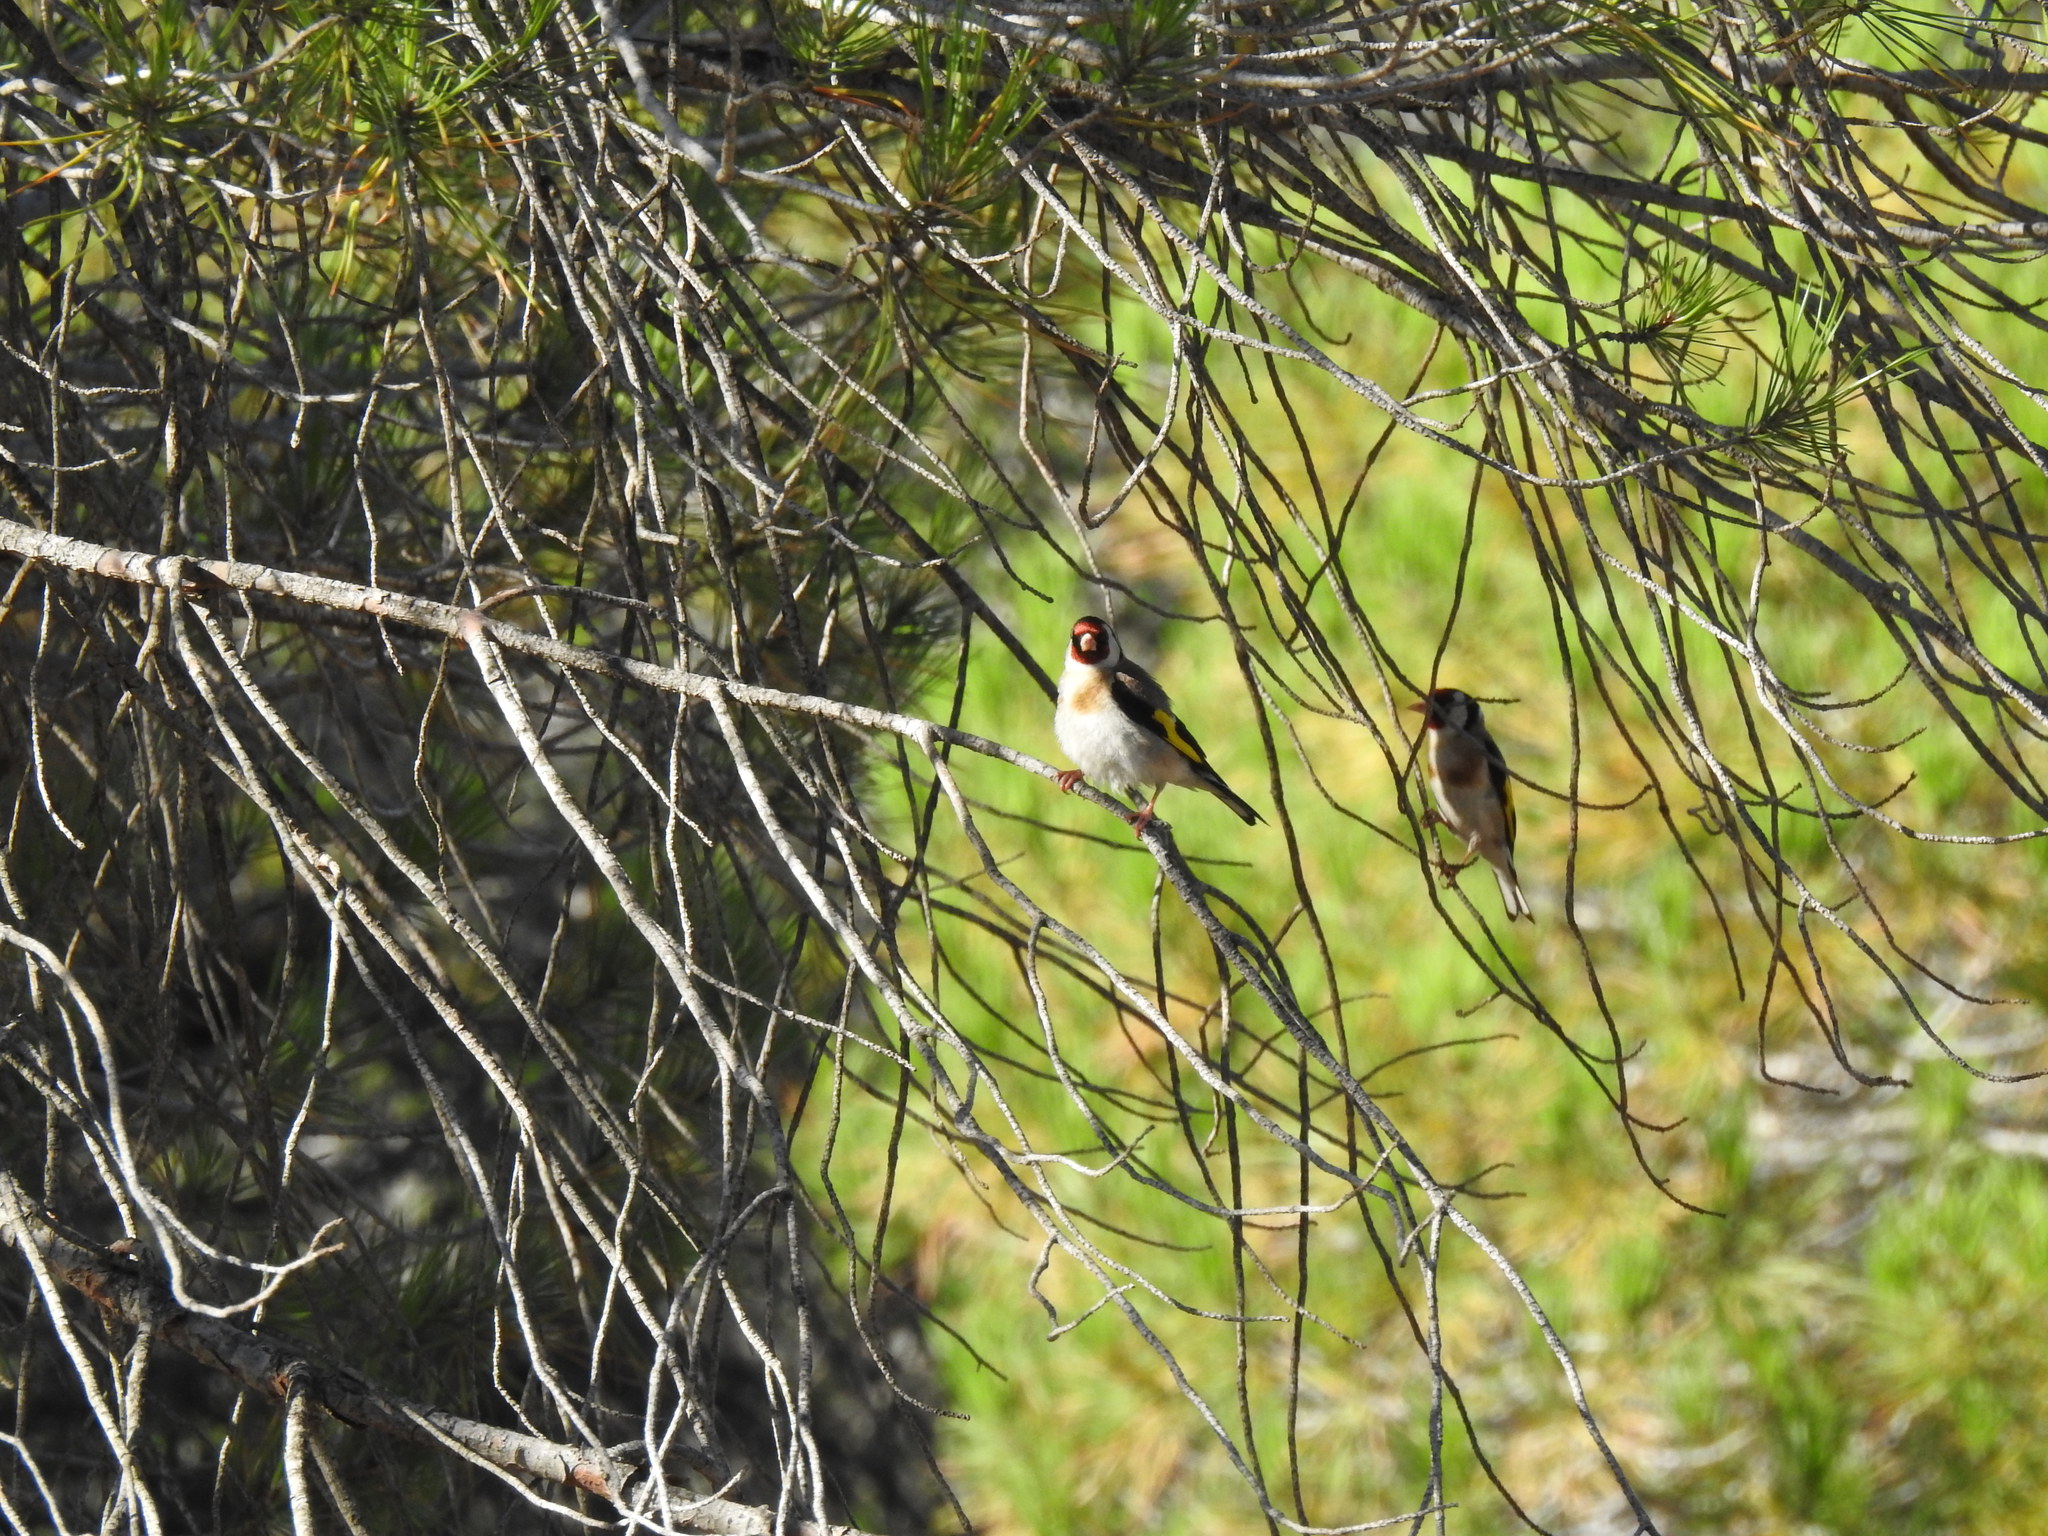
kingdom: Animalia
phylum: Chordata
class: Aves
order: Passeriformes
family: Fringillidae
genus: Carduelis
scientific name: Carduelis carduelis
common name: European goldfinch
